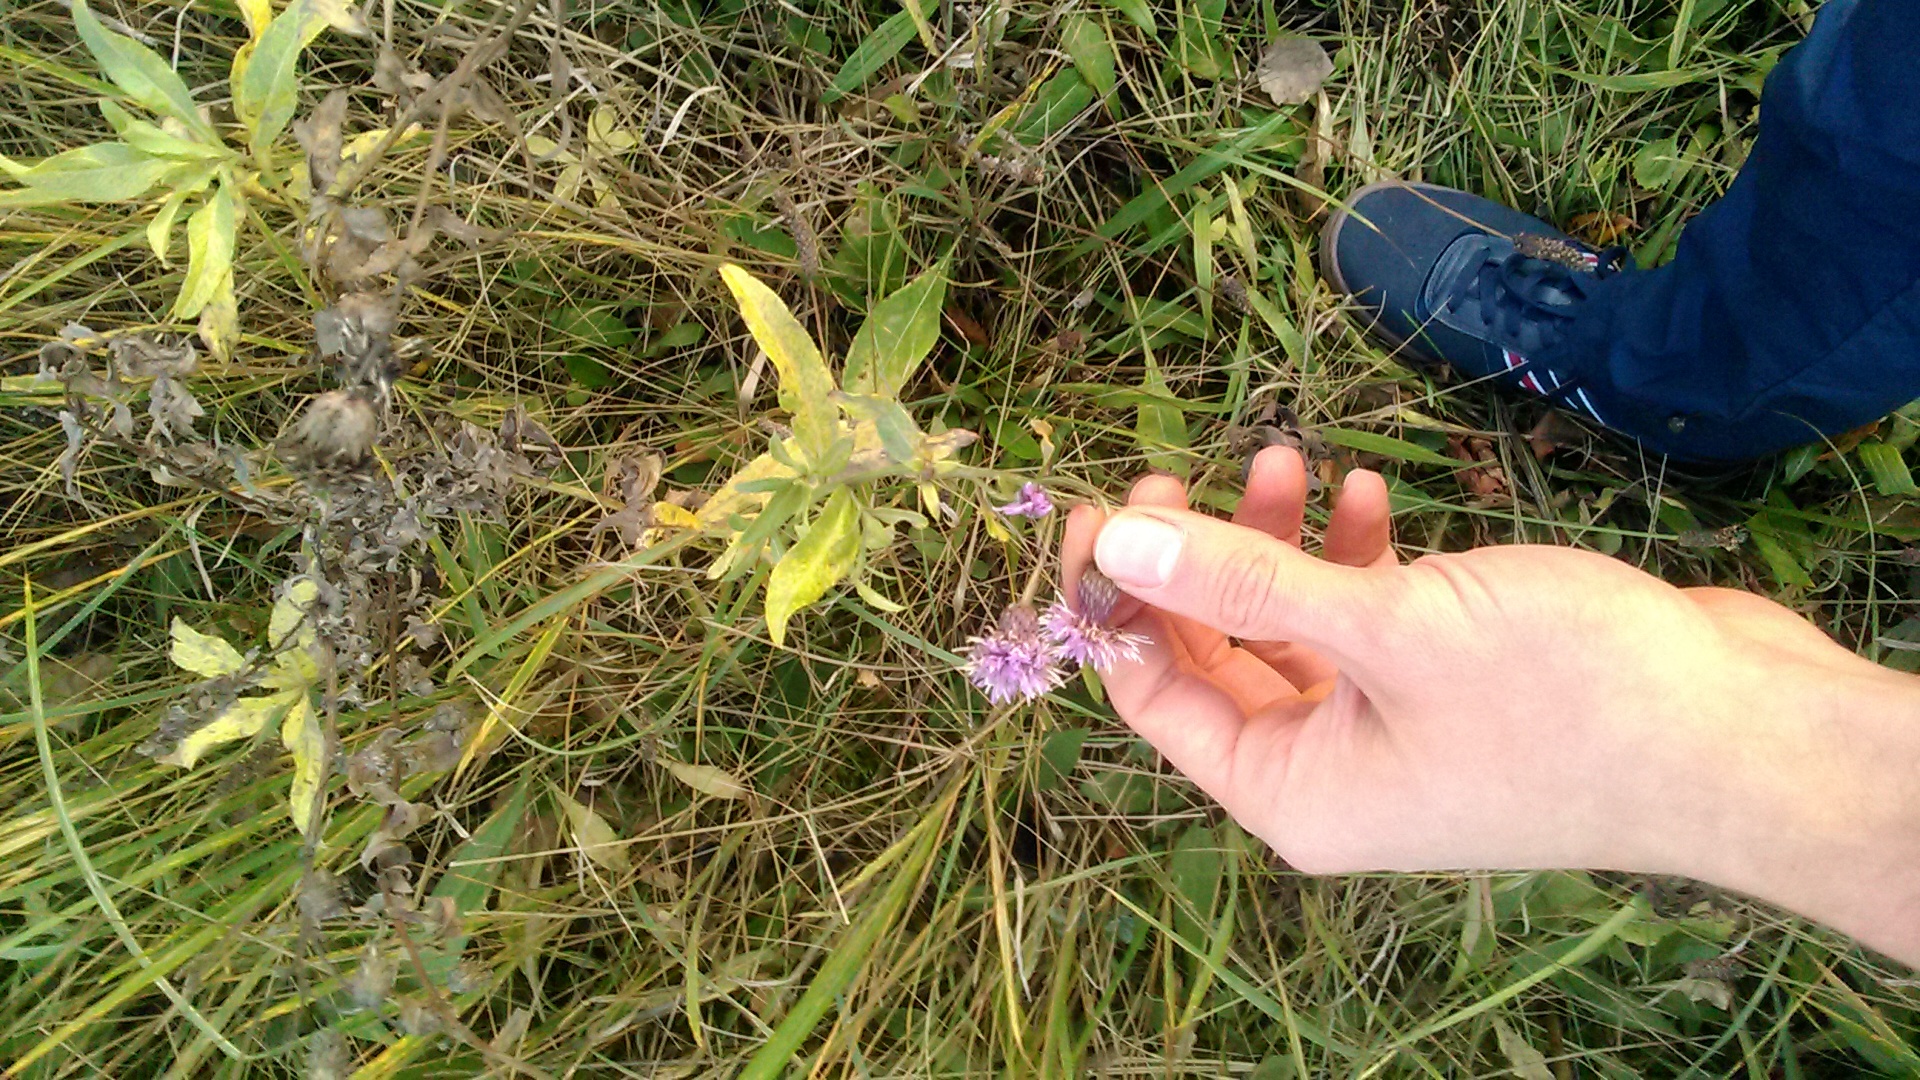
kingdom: Plantae
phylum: Tracheophyta
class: Magnoliopsida
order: Asterales
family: Asteraceae
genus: Cirsium
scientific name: Cirsium arvense
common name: Creeping thistle
